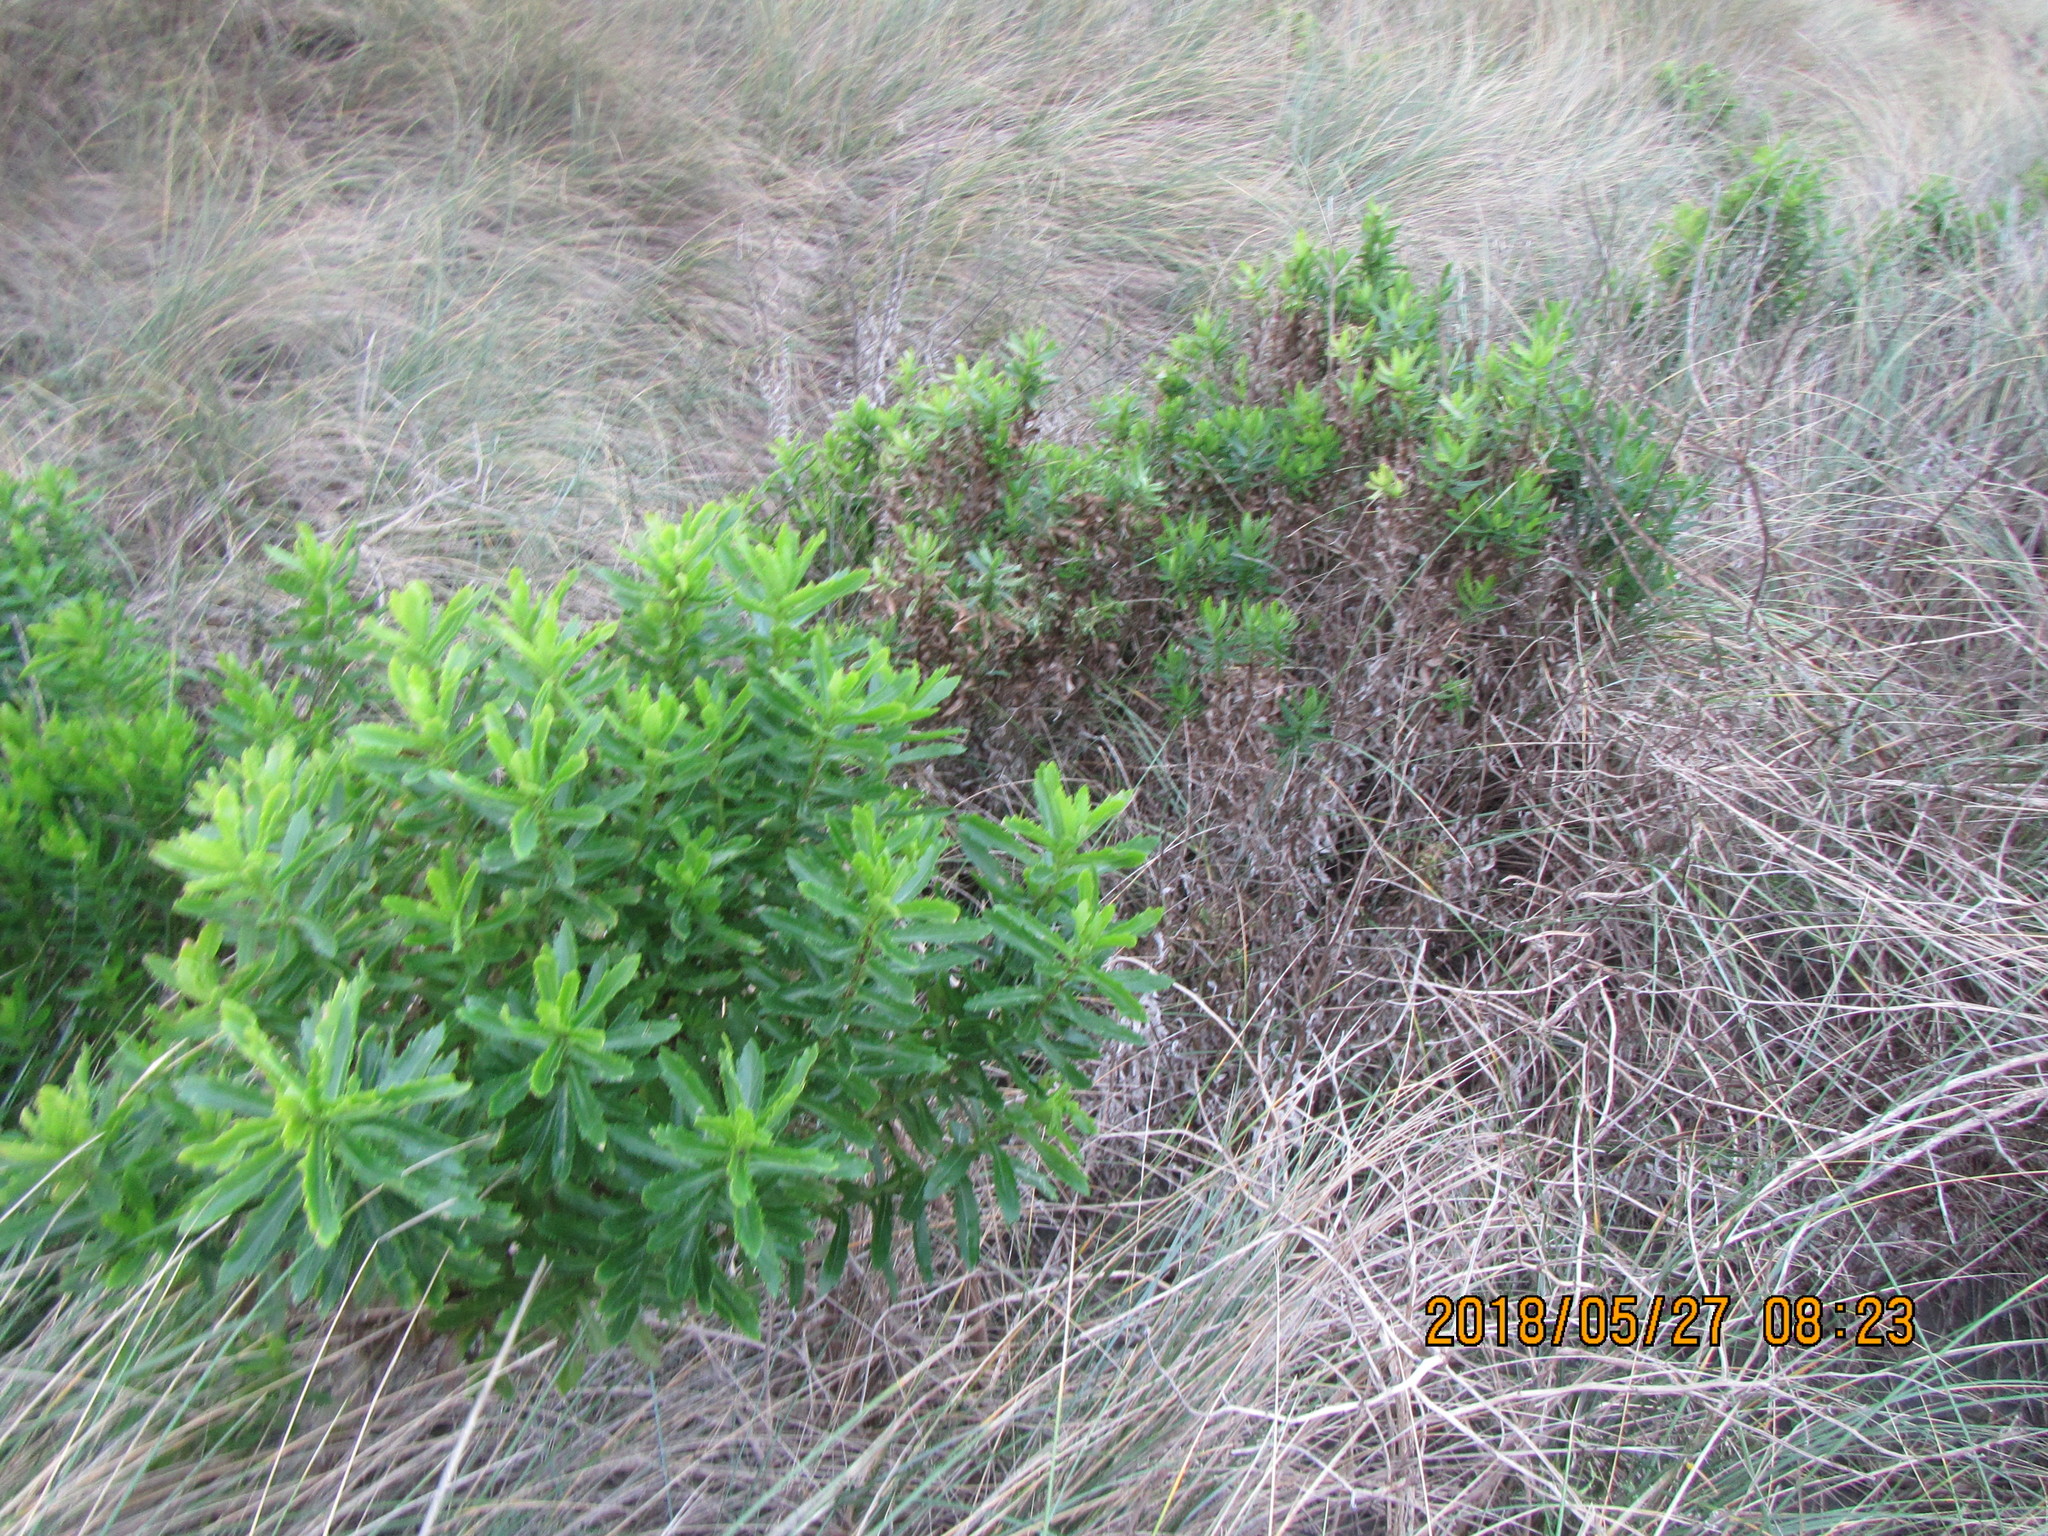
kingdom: Plantae
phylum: Tracheophyta
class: Magnoliopsida
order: Asterales
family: Asteraceae
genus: Senecio
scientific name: Senecio glastifolius
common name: Woad-leaved ragwort
